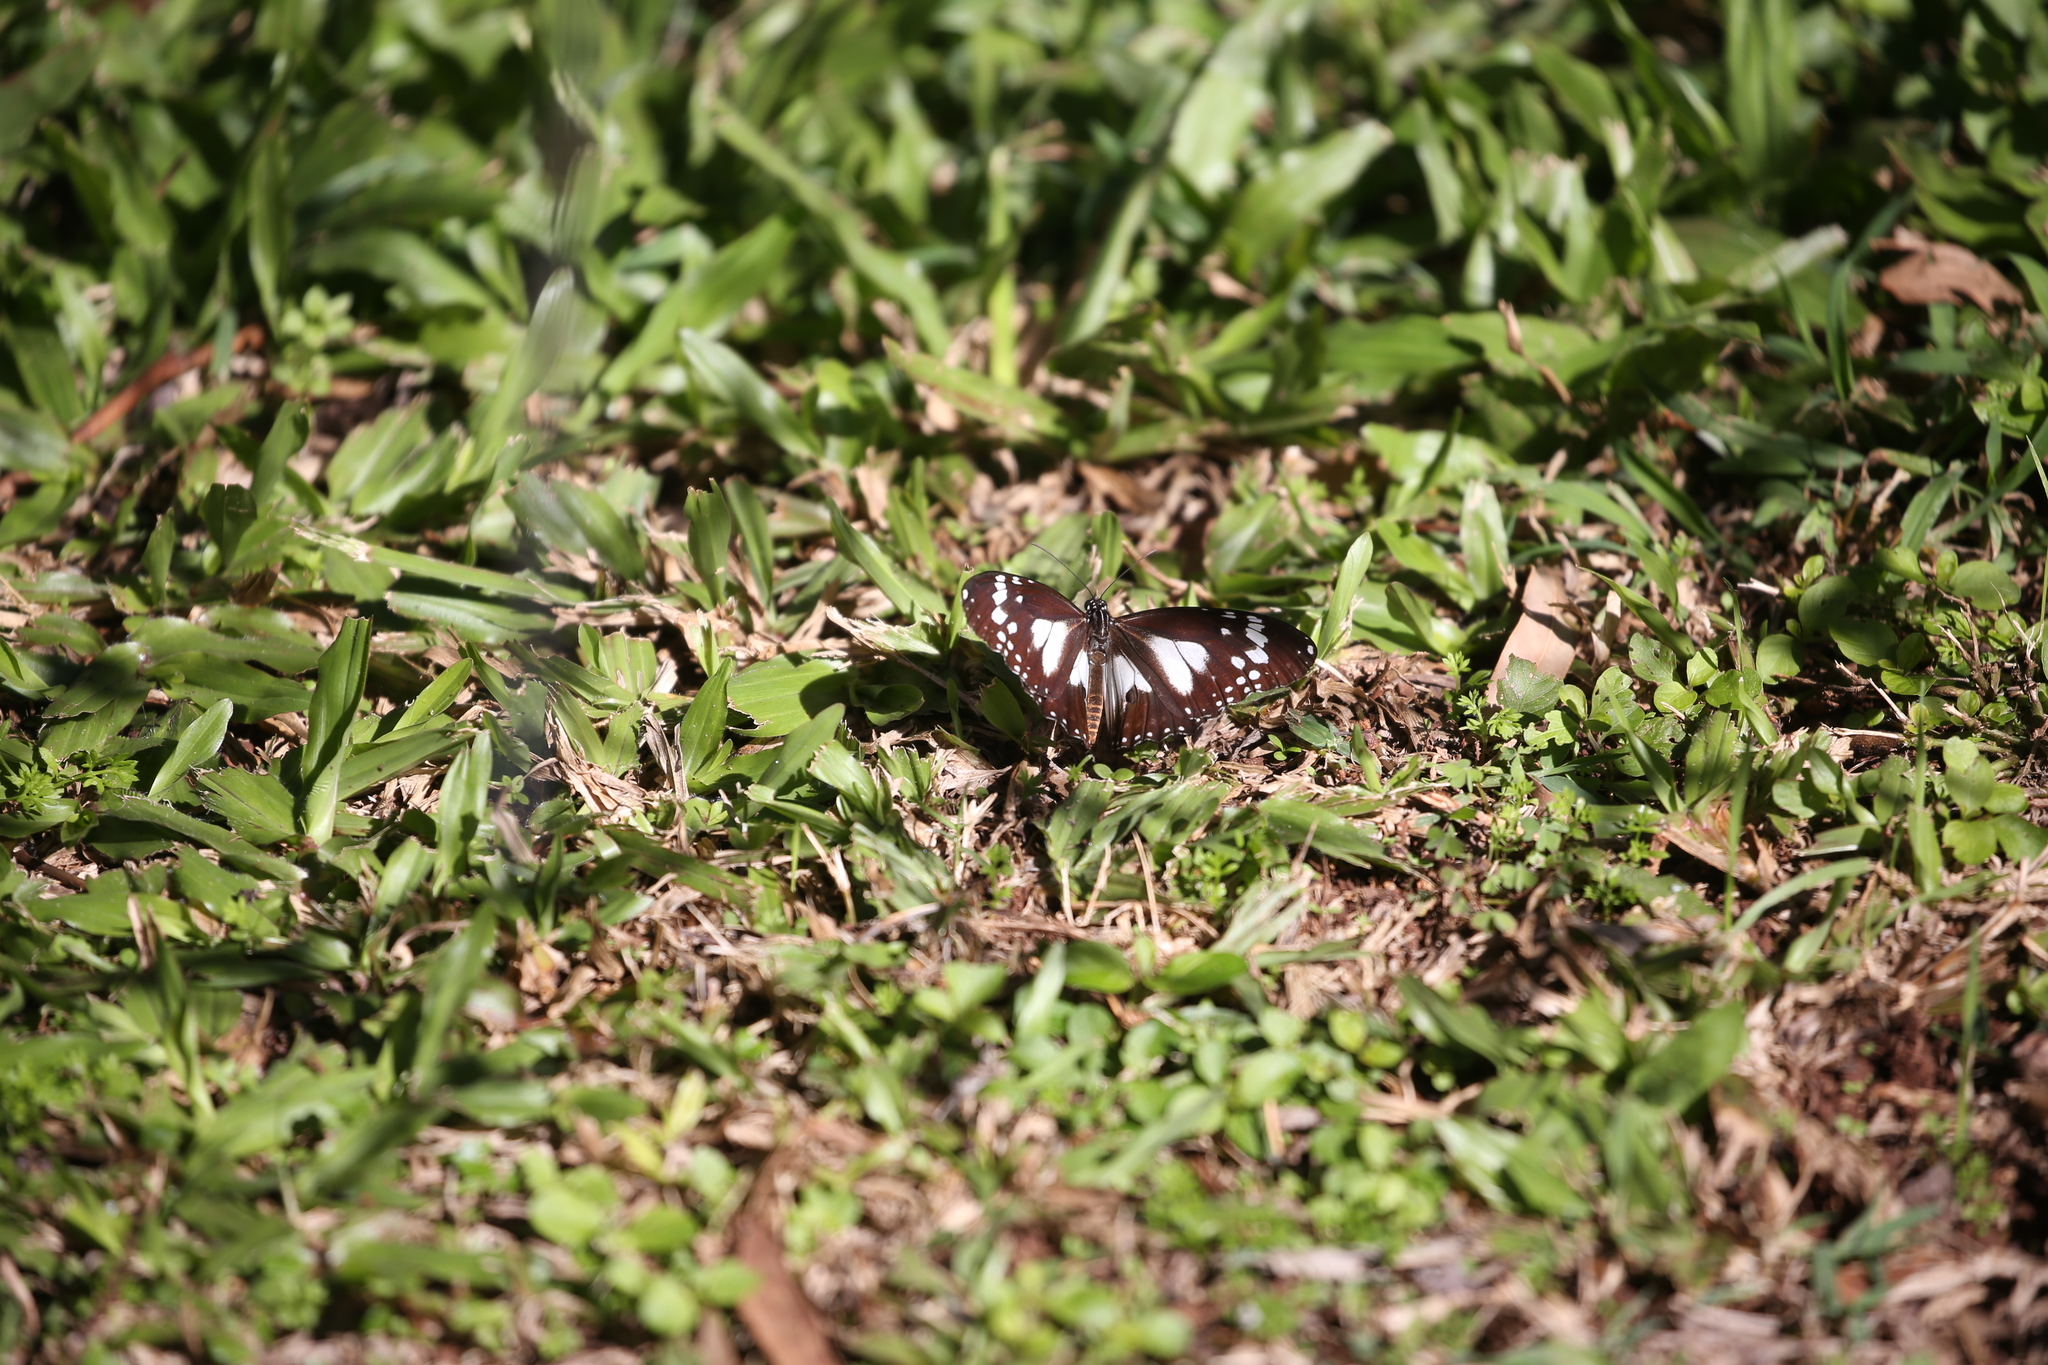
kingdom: Animalia
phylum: Arthropoda
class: Insecta
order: Lepidoptera
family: Nymphalidae
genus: Danaus
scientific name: Danaus affinis
